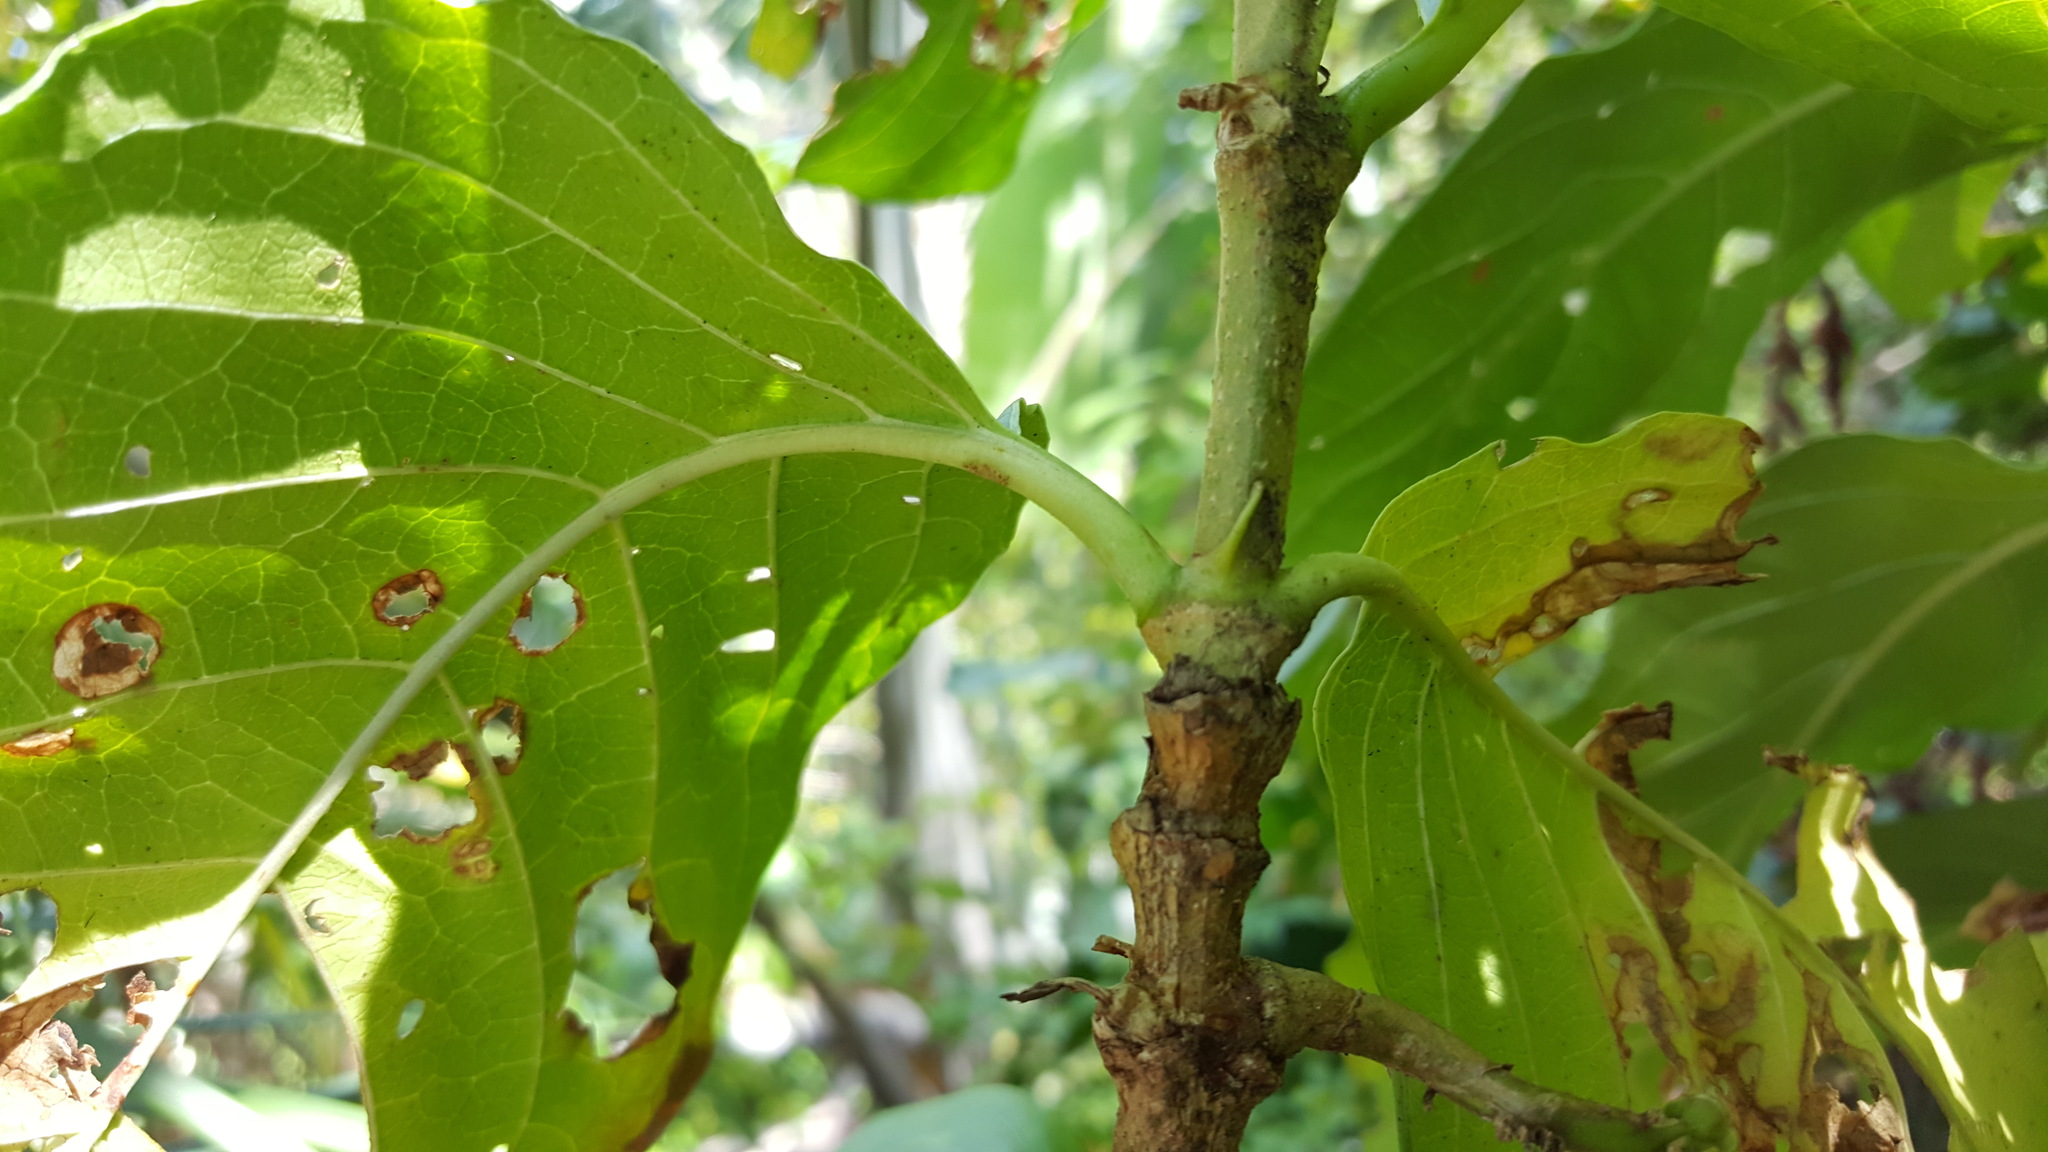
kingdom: Plantae
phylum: Tracheophyta
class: Magnoliopsida
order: Gentianales
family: Rubiaceae
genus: Vangueria
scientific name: Vangueria madagascariensis
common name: Smooth wild-medlar
